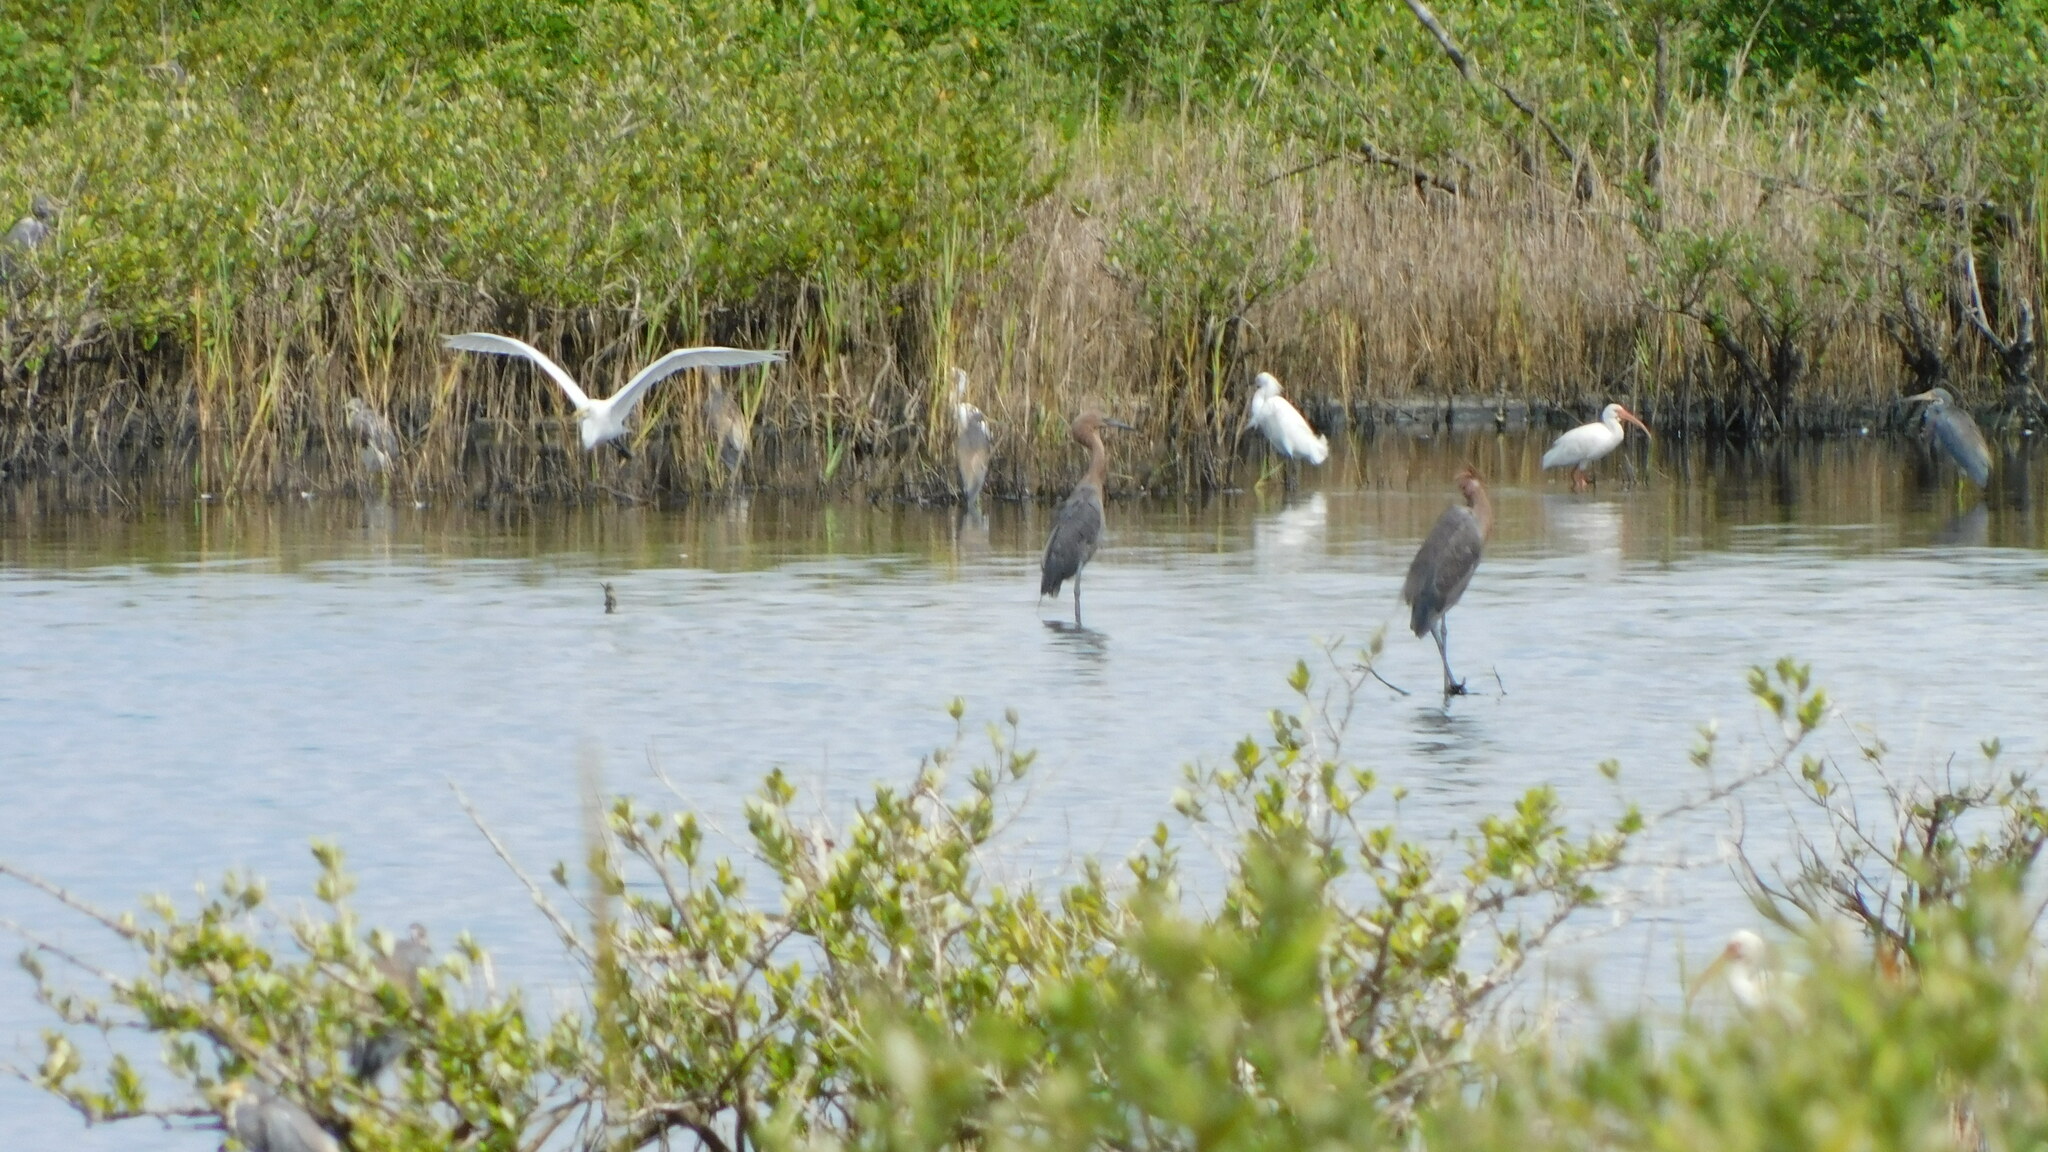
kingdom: Animalia
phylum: Chordata
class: Aves
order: Pelecaniformes
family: Ardeidae
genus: Egretta
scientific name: Egretta rufescens
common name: Reddish egret
